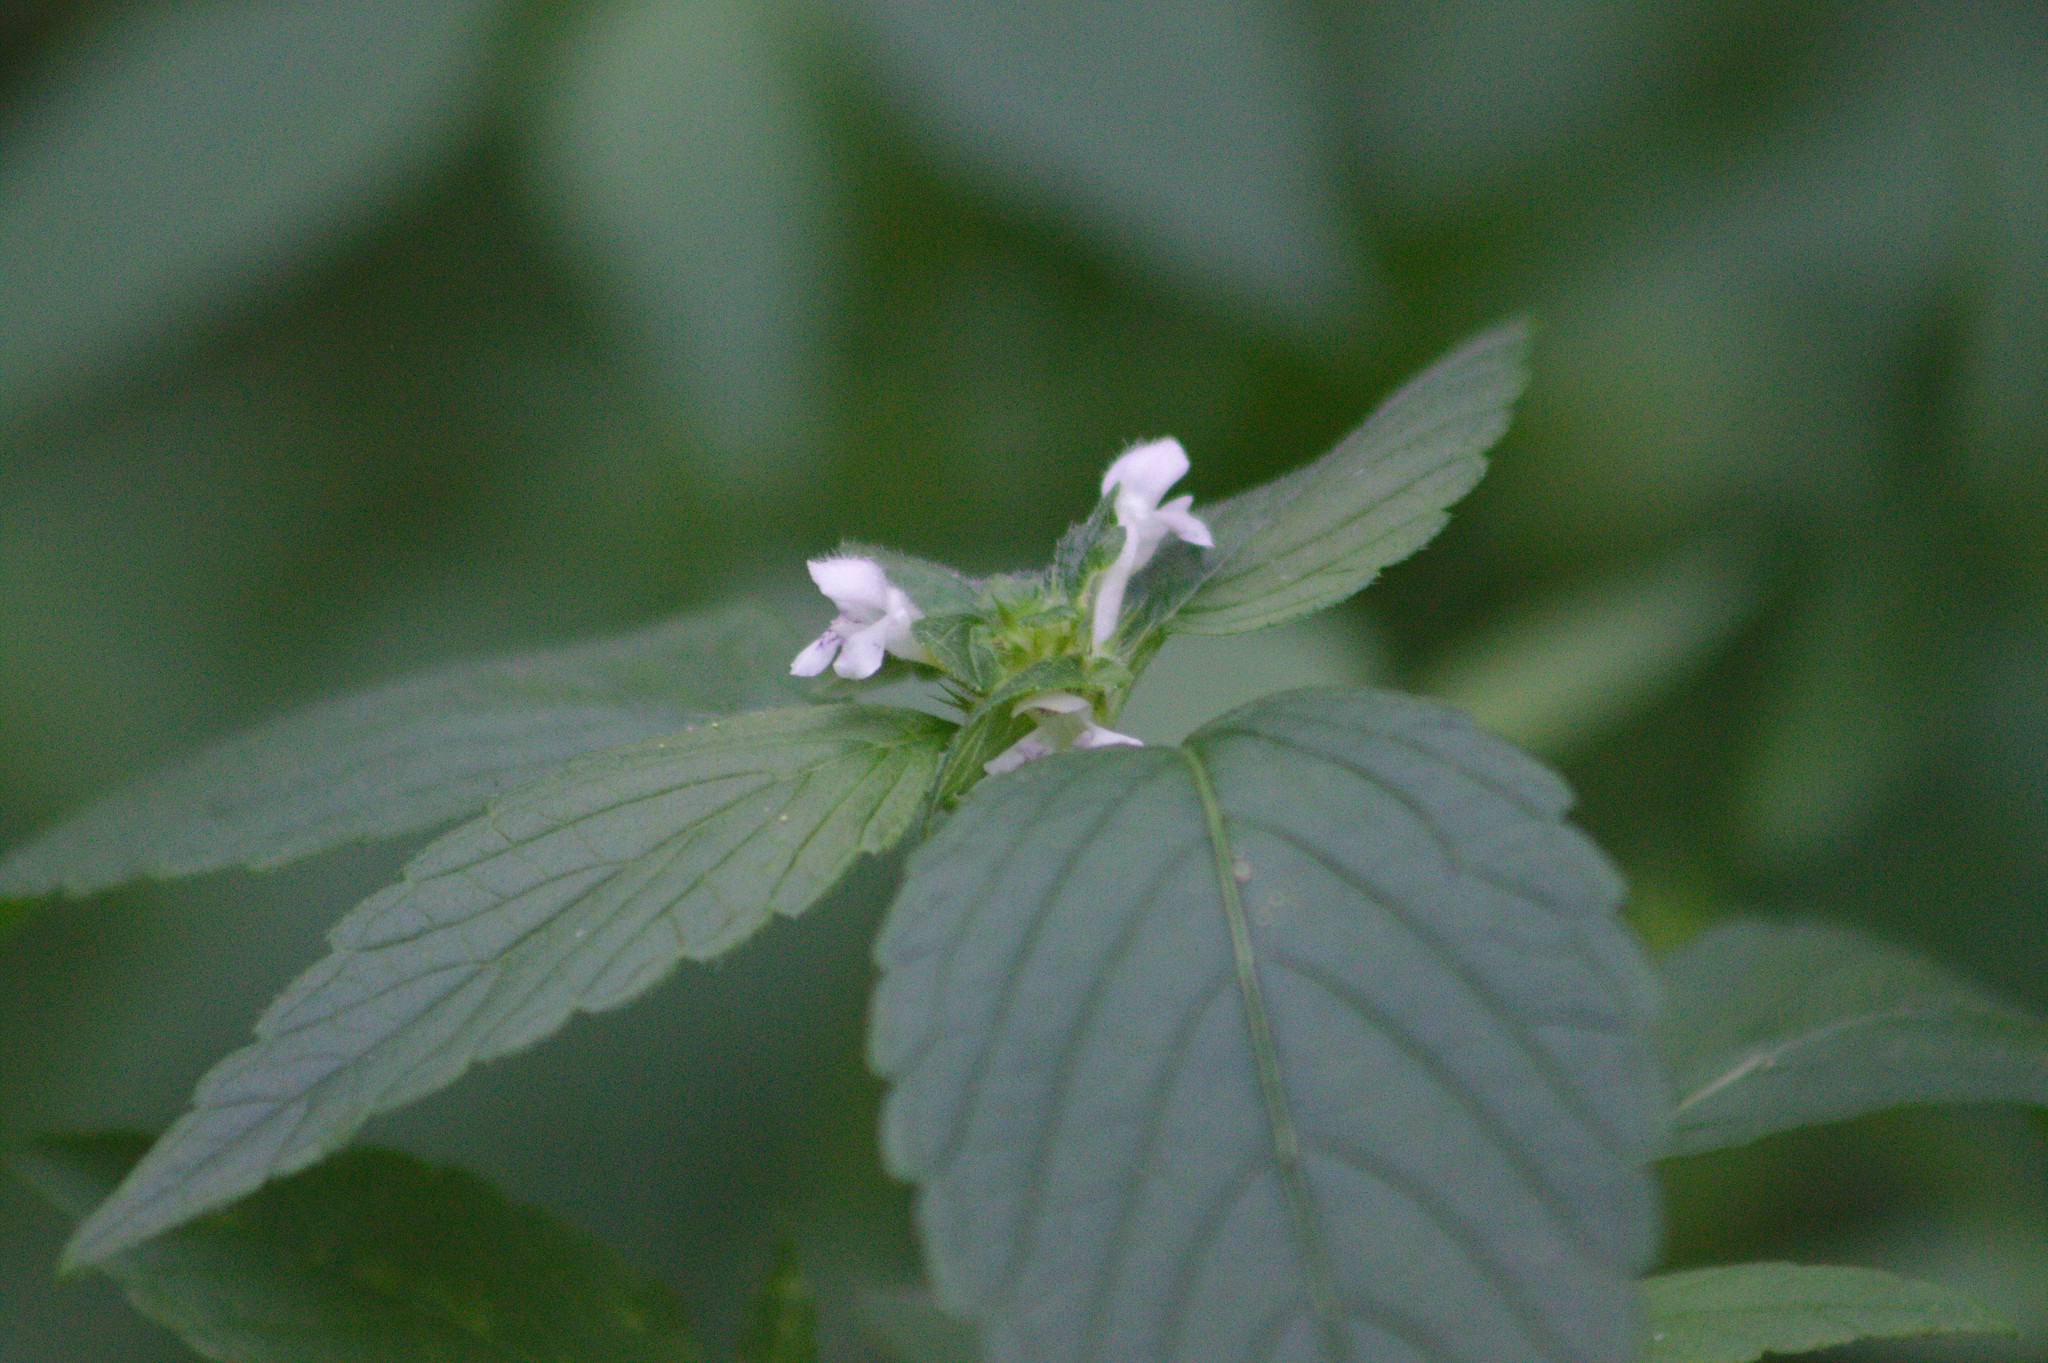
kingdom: Plantae
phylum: Tracheophyta
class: Magnoliopsida
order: Lamiales
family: Lamiaceae
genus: Galeopsis
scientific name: Galeopsis tetrahit
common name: Common hemp-nettle
